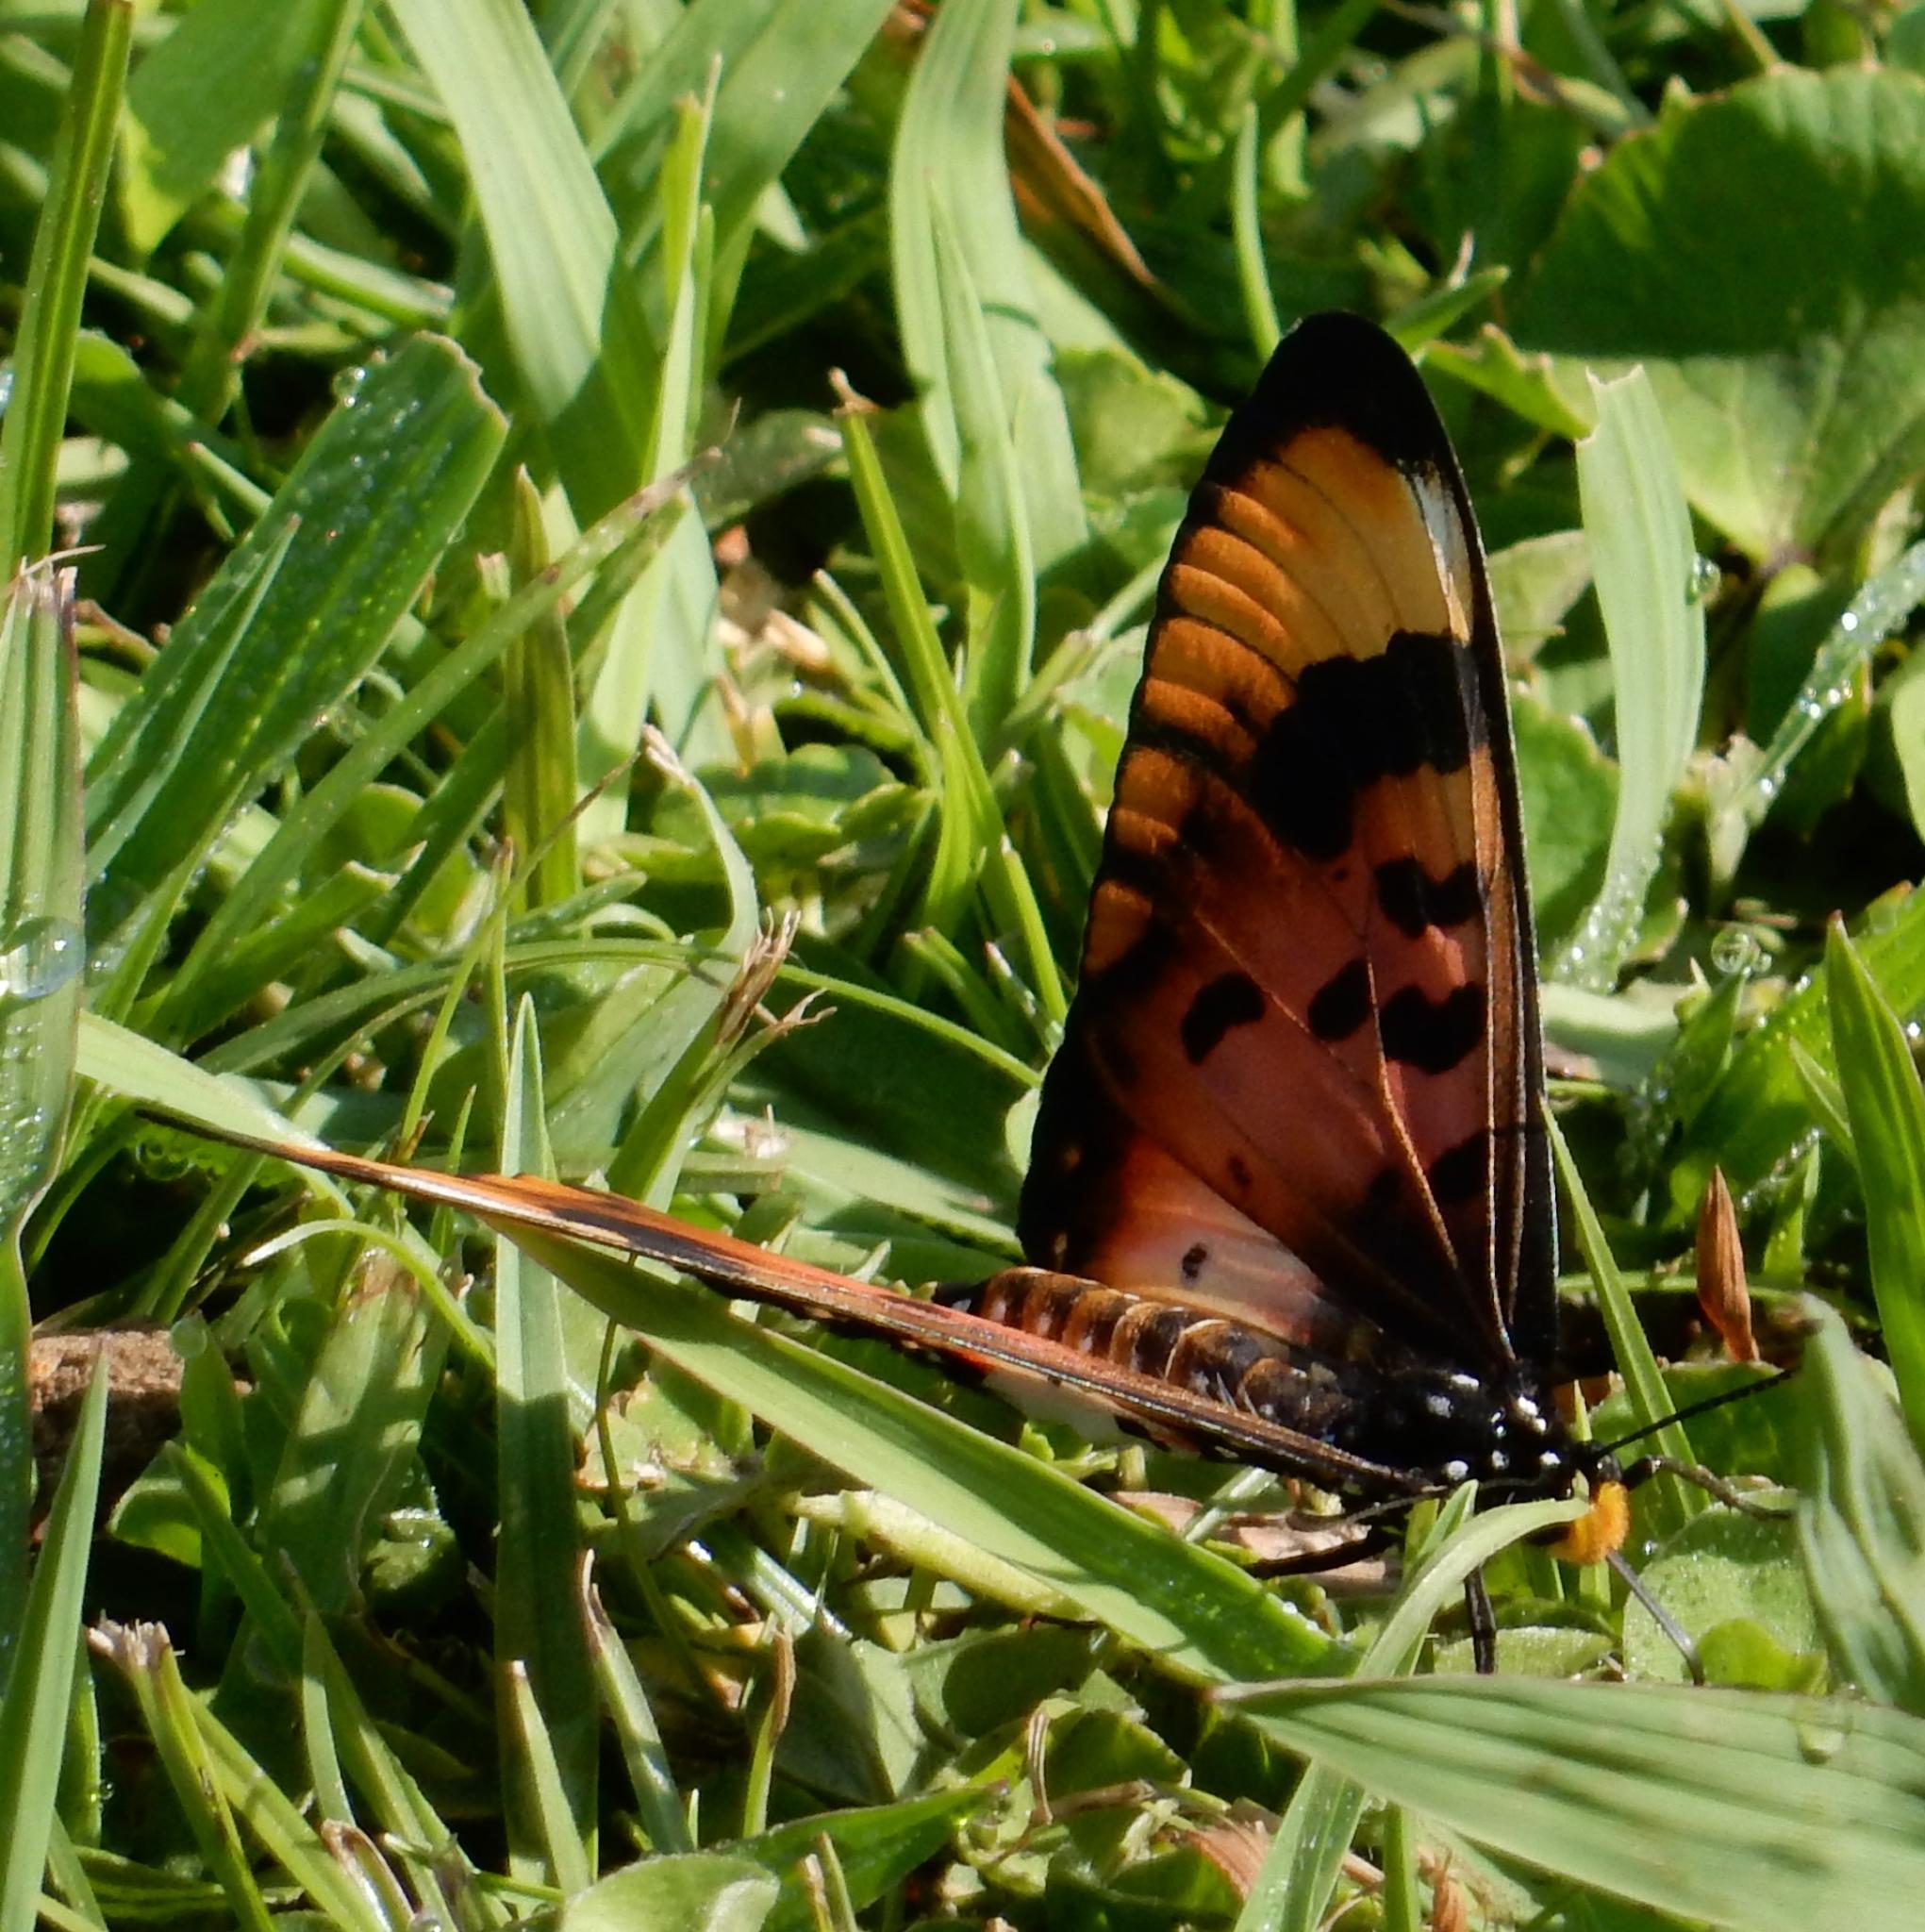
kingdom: Animalia
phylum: Arthropoda
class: Insecta
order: Lepidoptera
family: Nymphalidae
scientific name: Nymphalidae
